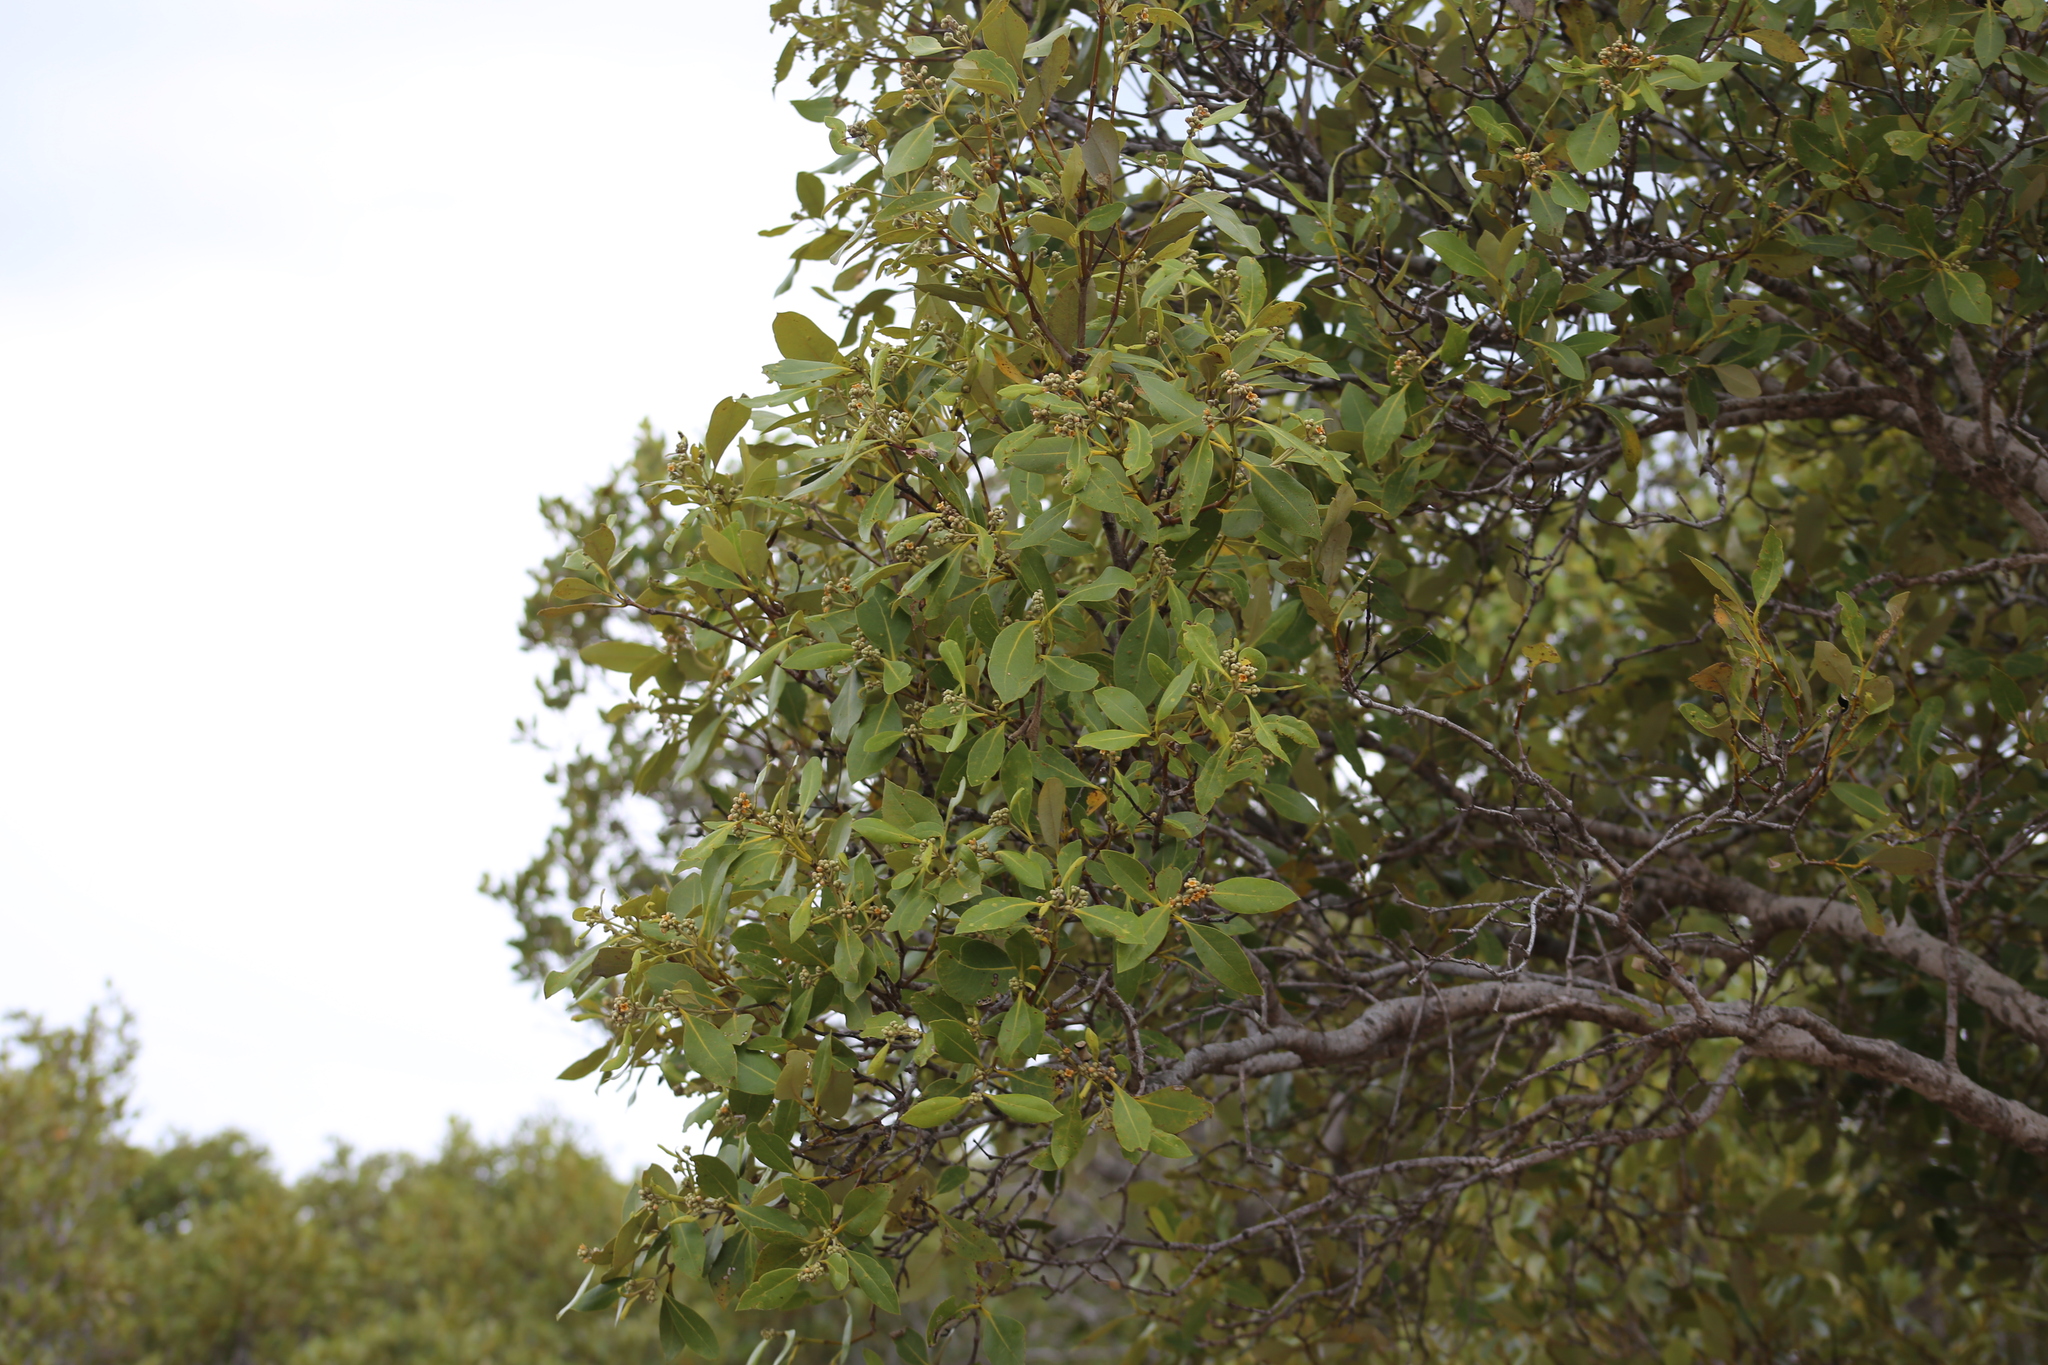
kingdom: Plantae
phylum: Tracheophyta
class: Magnoliopsida
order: Lamiales
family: Acanthaceae
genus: Avicennia
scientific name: Avicennia marina
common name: Gray mangrove
